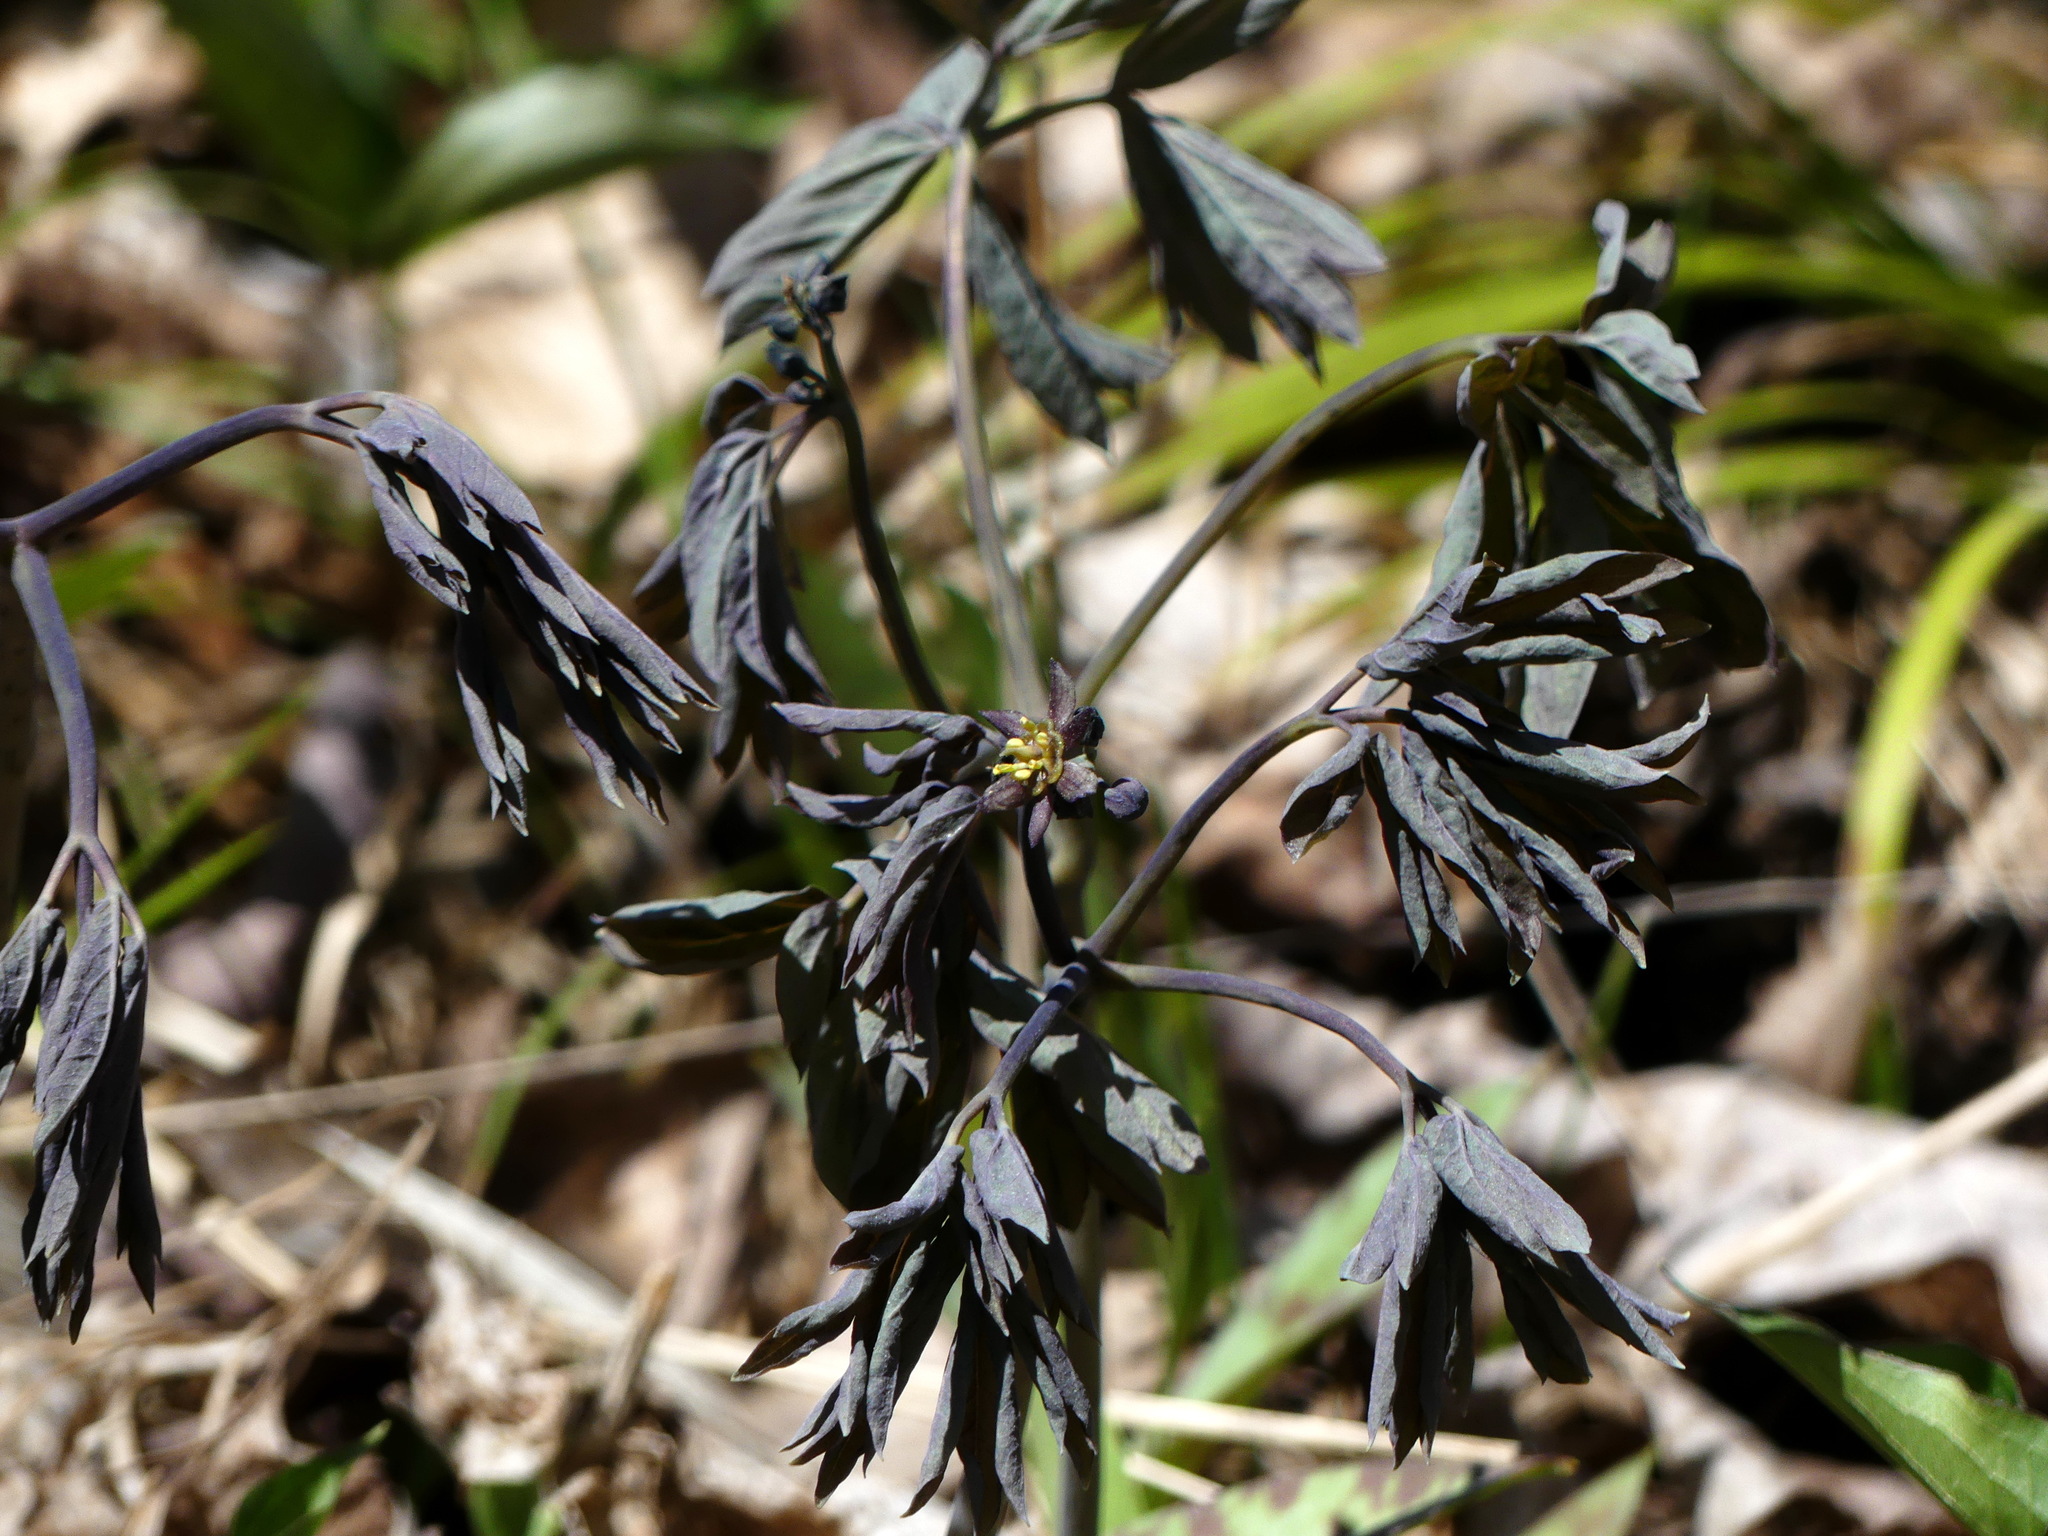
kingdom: Plantae
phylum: Tracheophyta
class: Magnoliopsida
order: Ranunculales
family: Berberidaceae
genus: Caulophyllum
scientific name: Caulophyllum giganteum
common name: Blue cohosh
